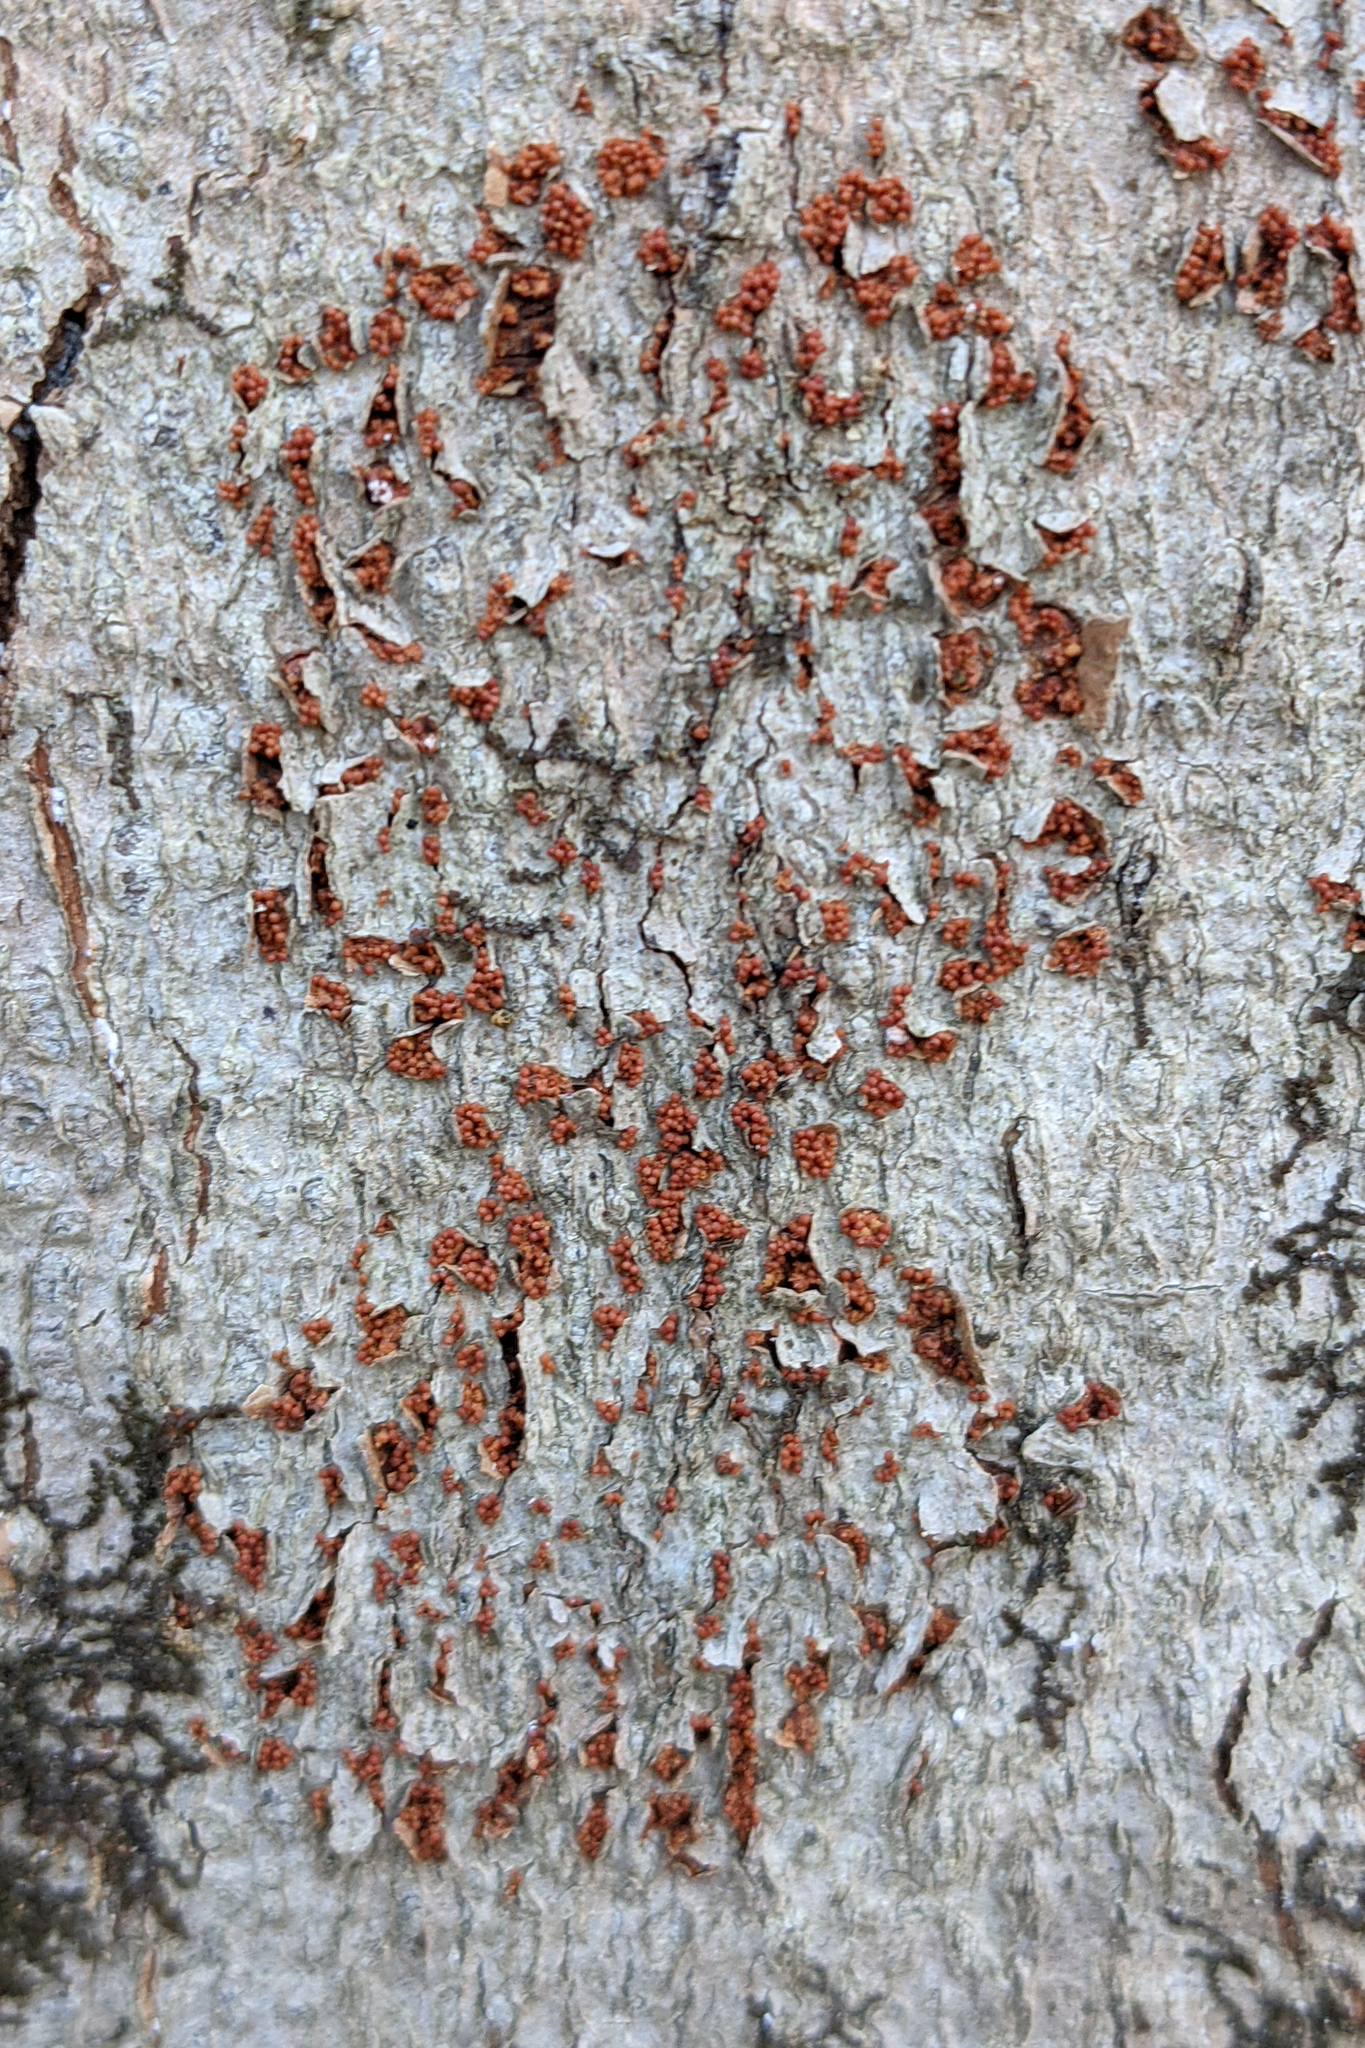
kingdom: Fungi
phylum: Ascomycota
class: Sordariomycetes
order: Hypocreales
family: Nectriaceae
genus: Neonectria
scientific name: Neonectria faginata
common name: Beech bark canker
